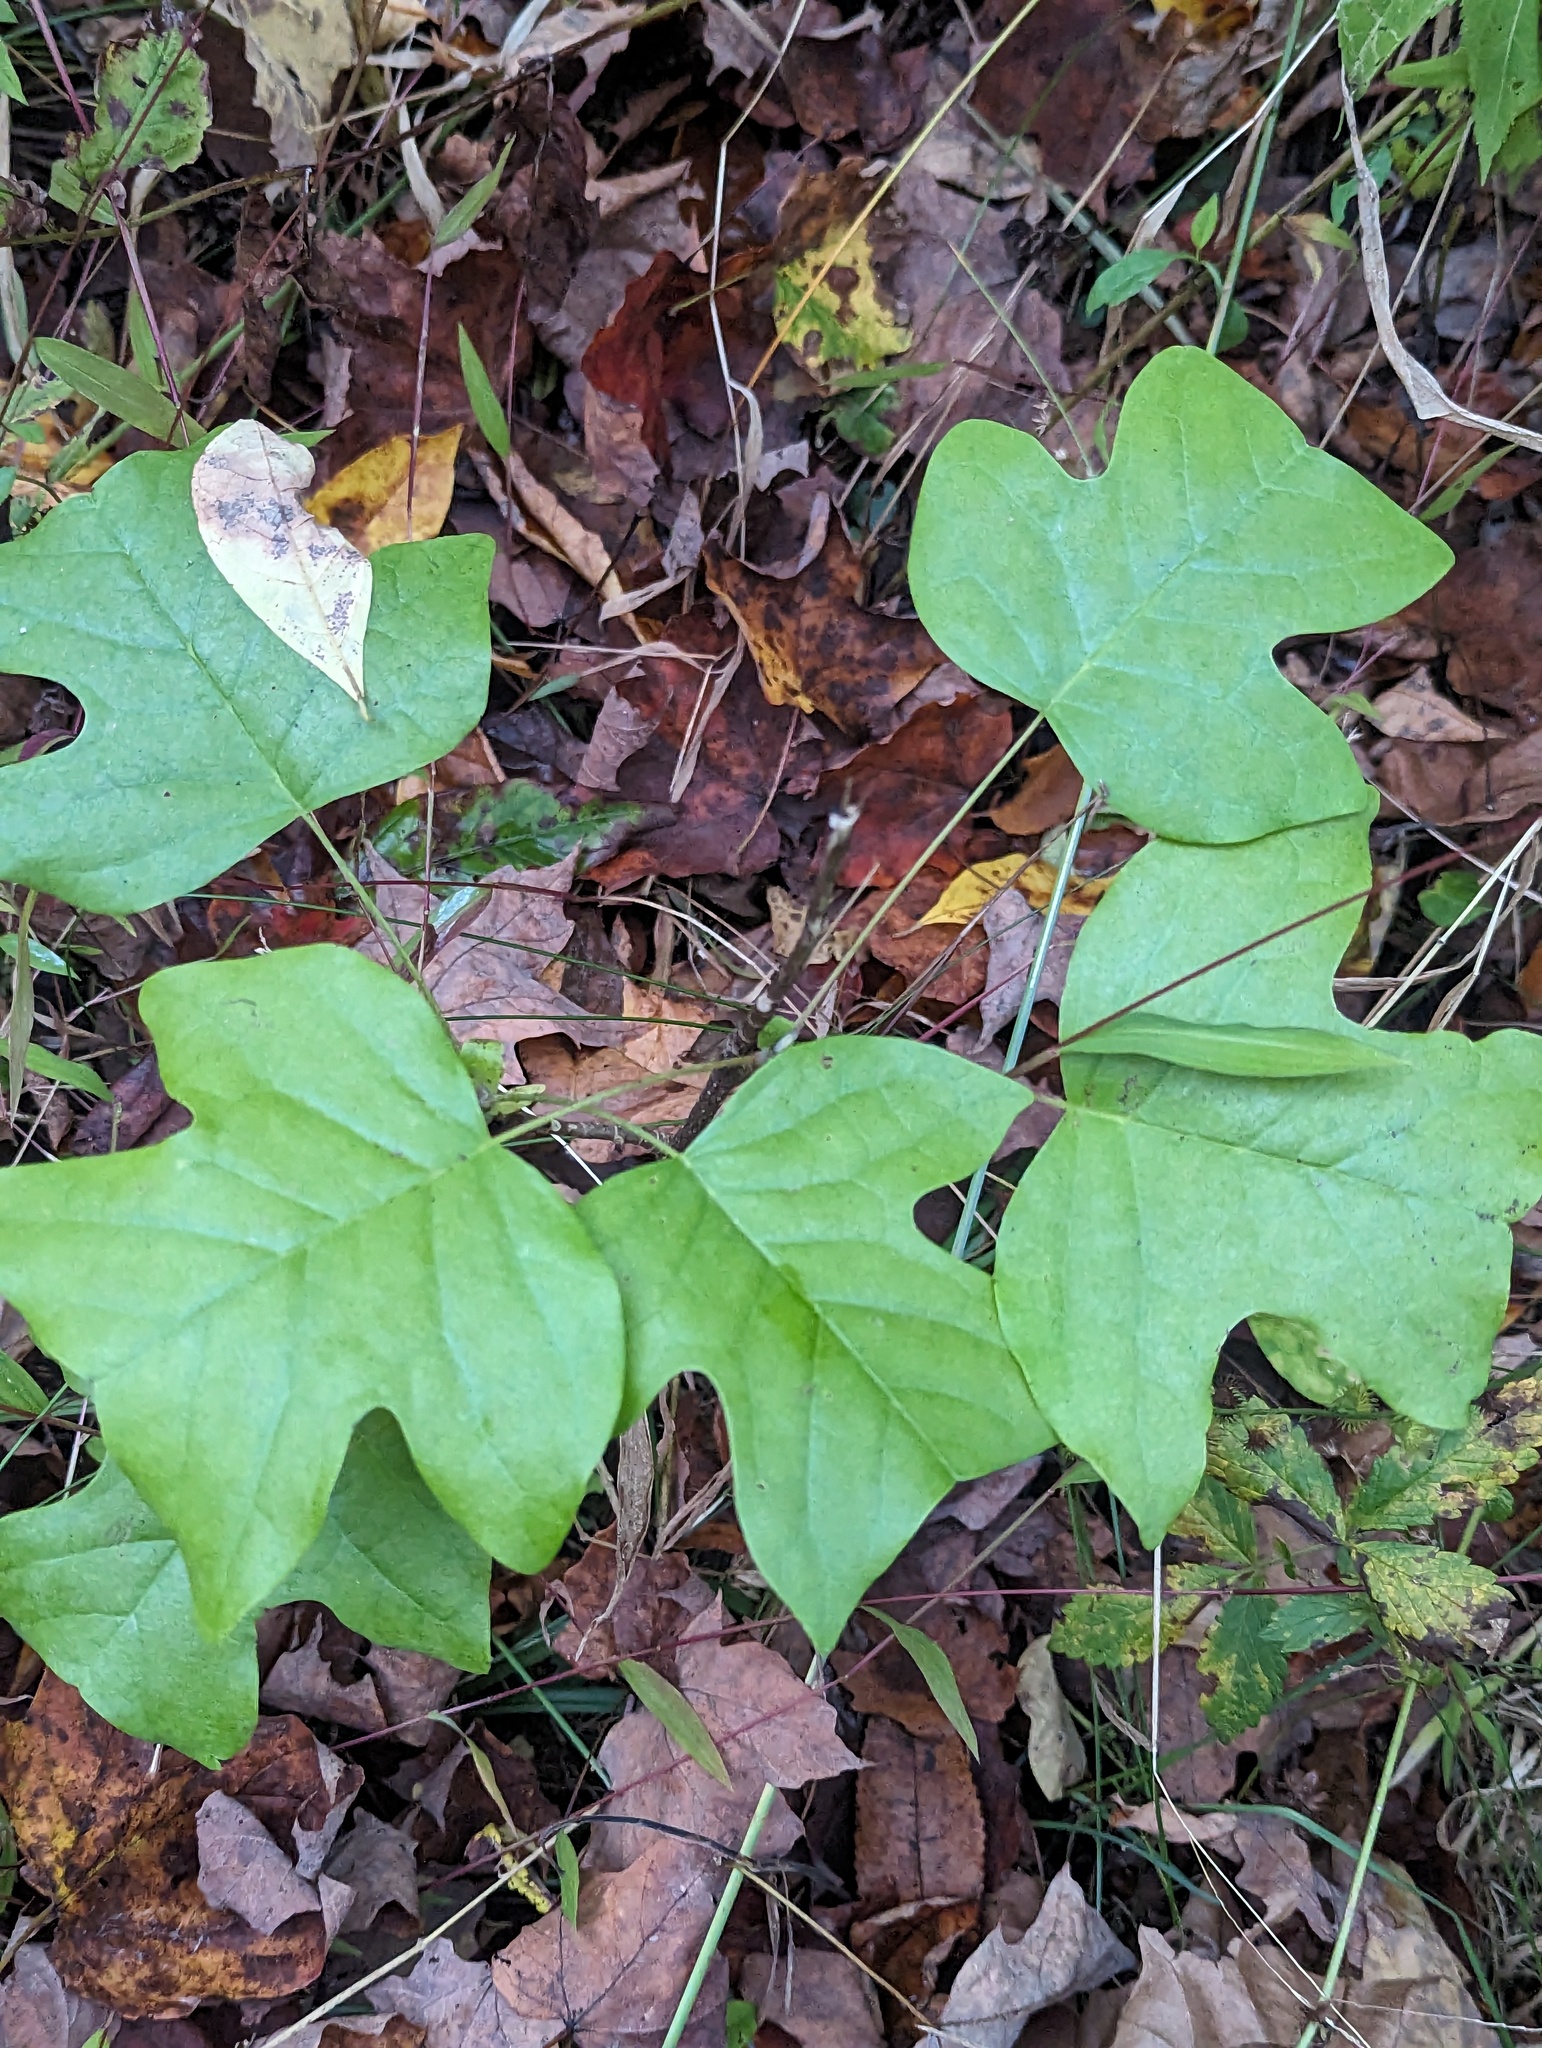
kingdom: Plantae
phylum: Tracheophyta
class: Magnoliopsida
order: Magnoliales
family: Magnoliaceae
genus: Liriodendron
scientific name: Liriodendron tulipifera
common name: Tulip tree
